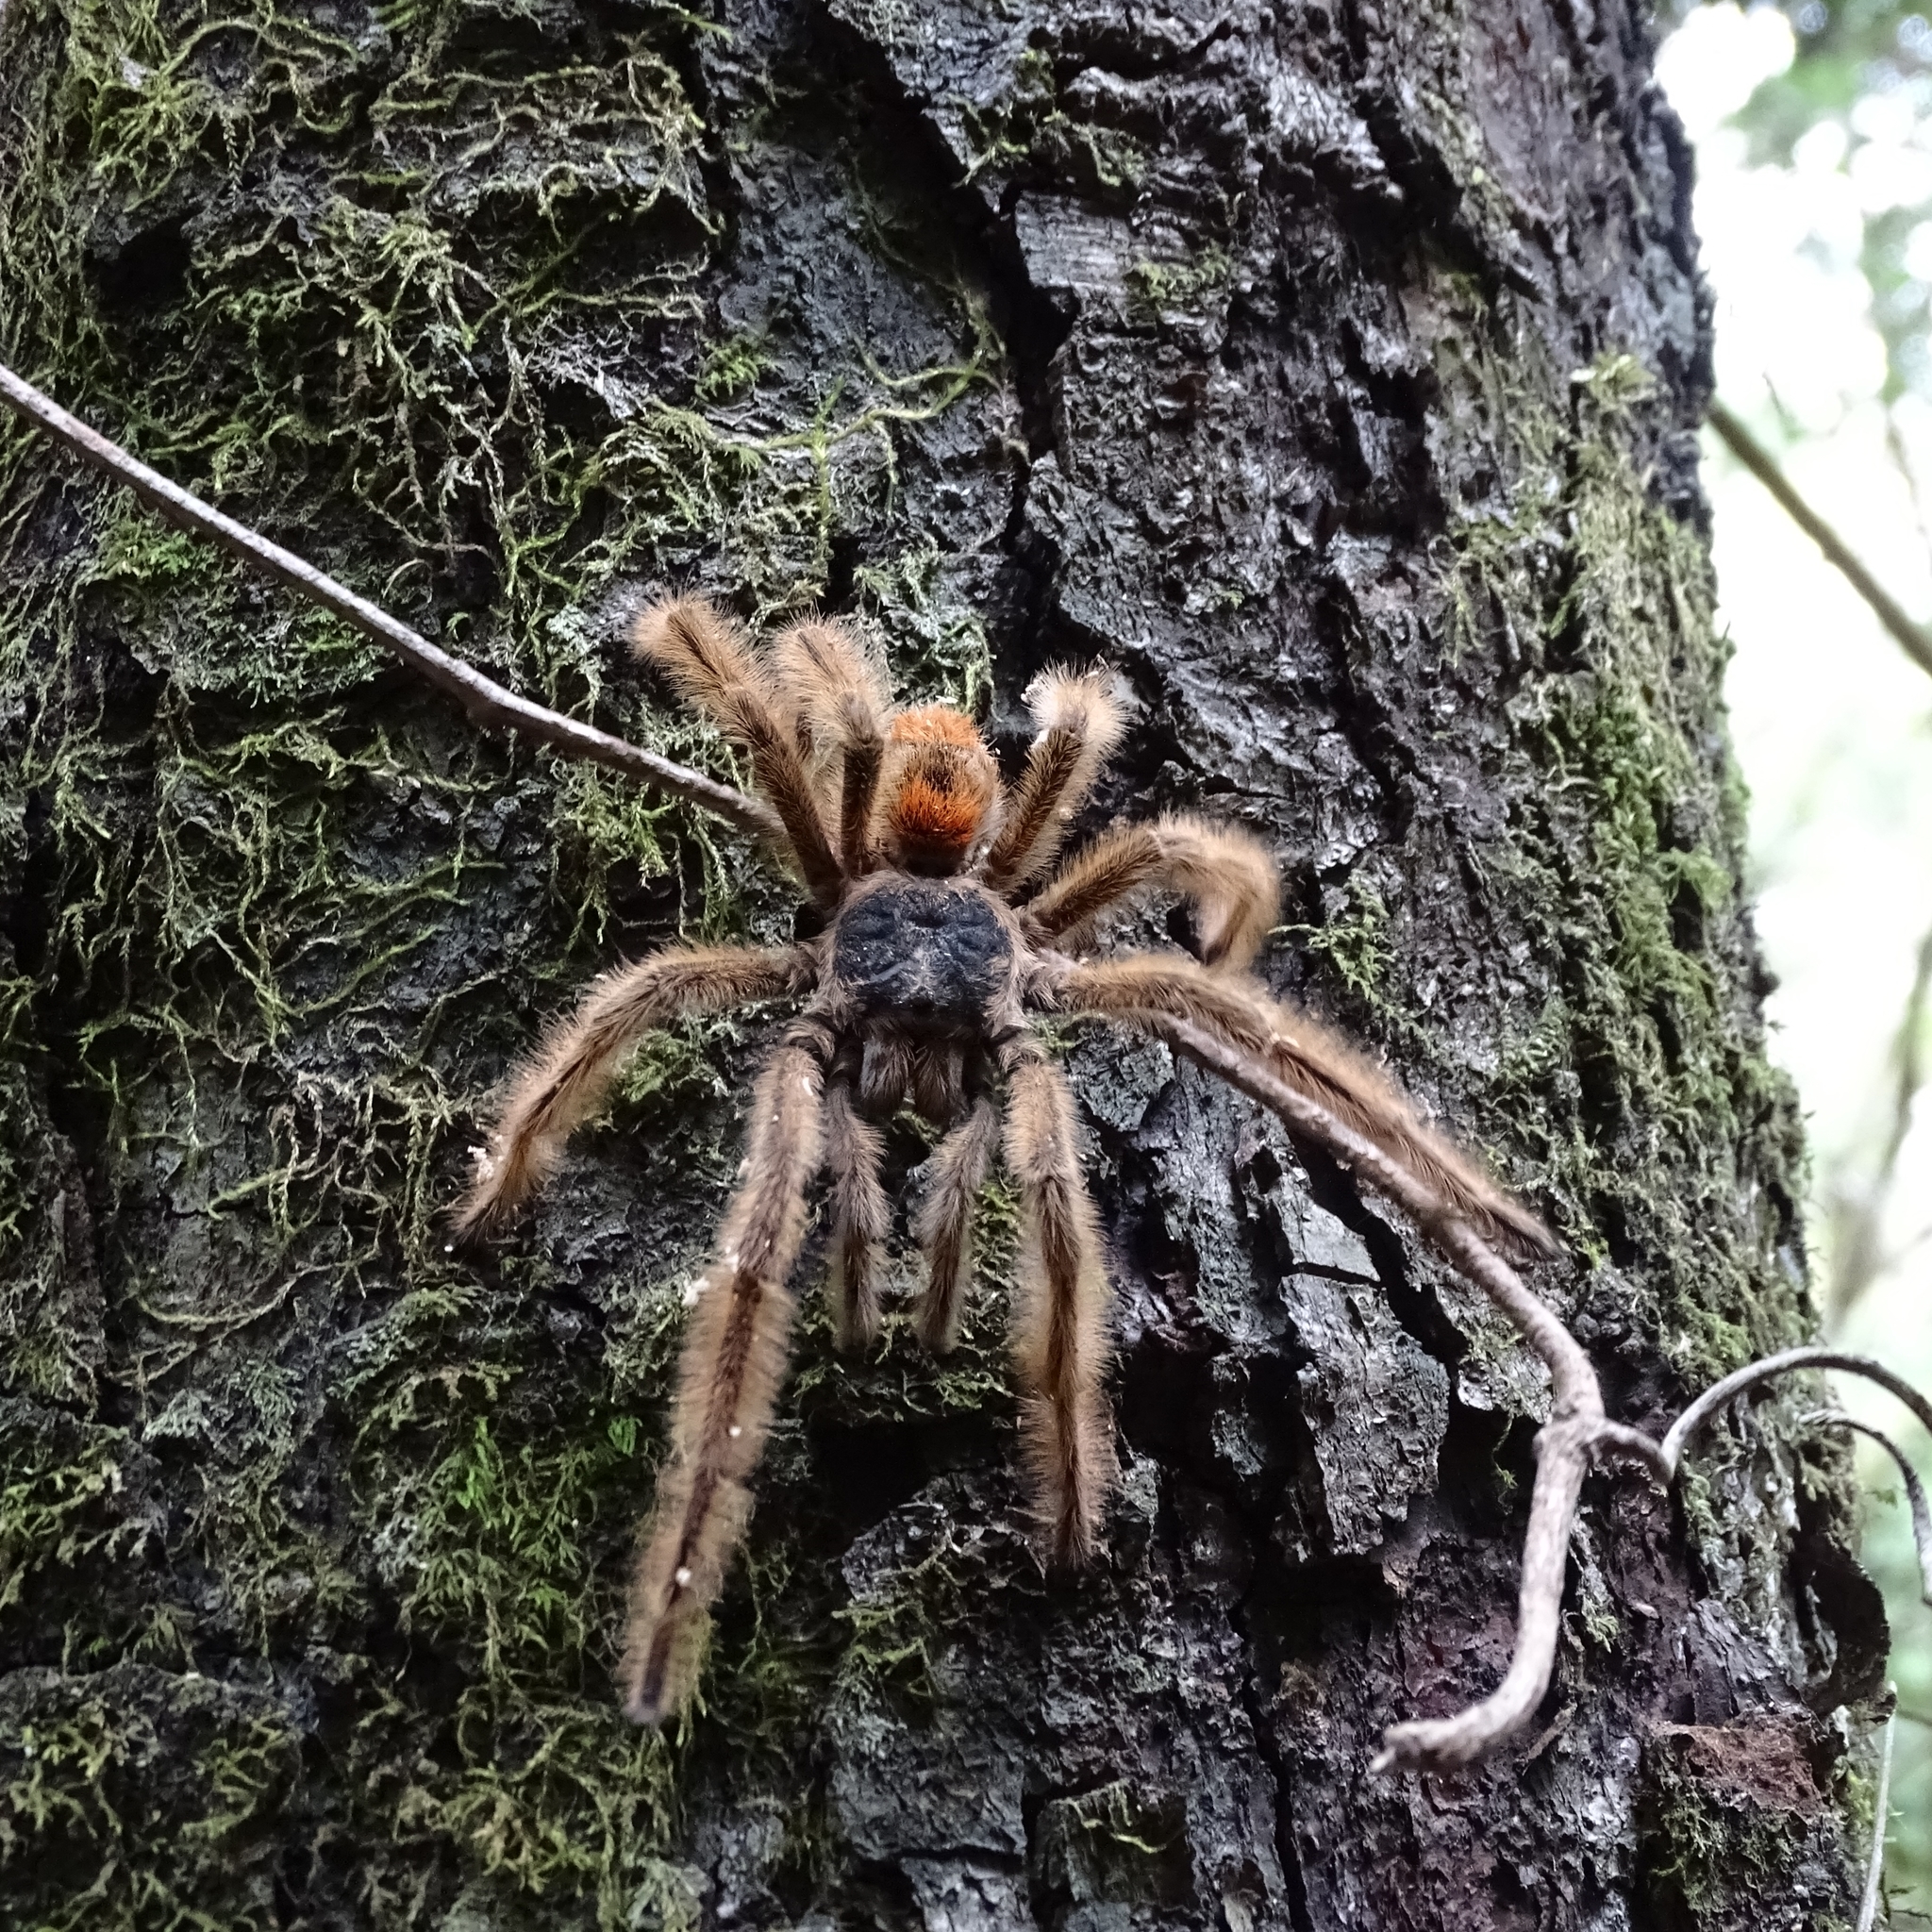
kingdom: Animalia
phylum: Arthropoda
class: Arachnida
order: Araneae
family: Theraphosidae
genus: Phrixotrichus
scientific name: Phrixotrichus vulpinus
